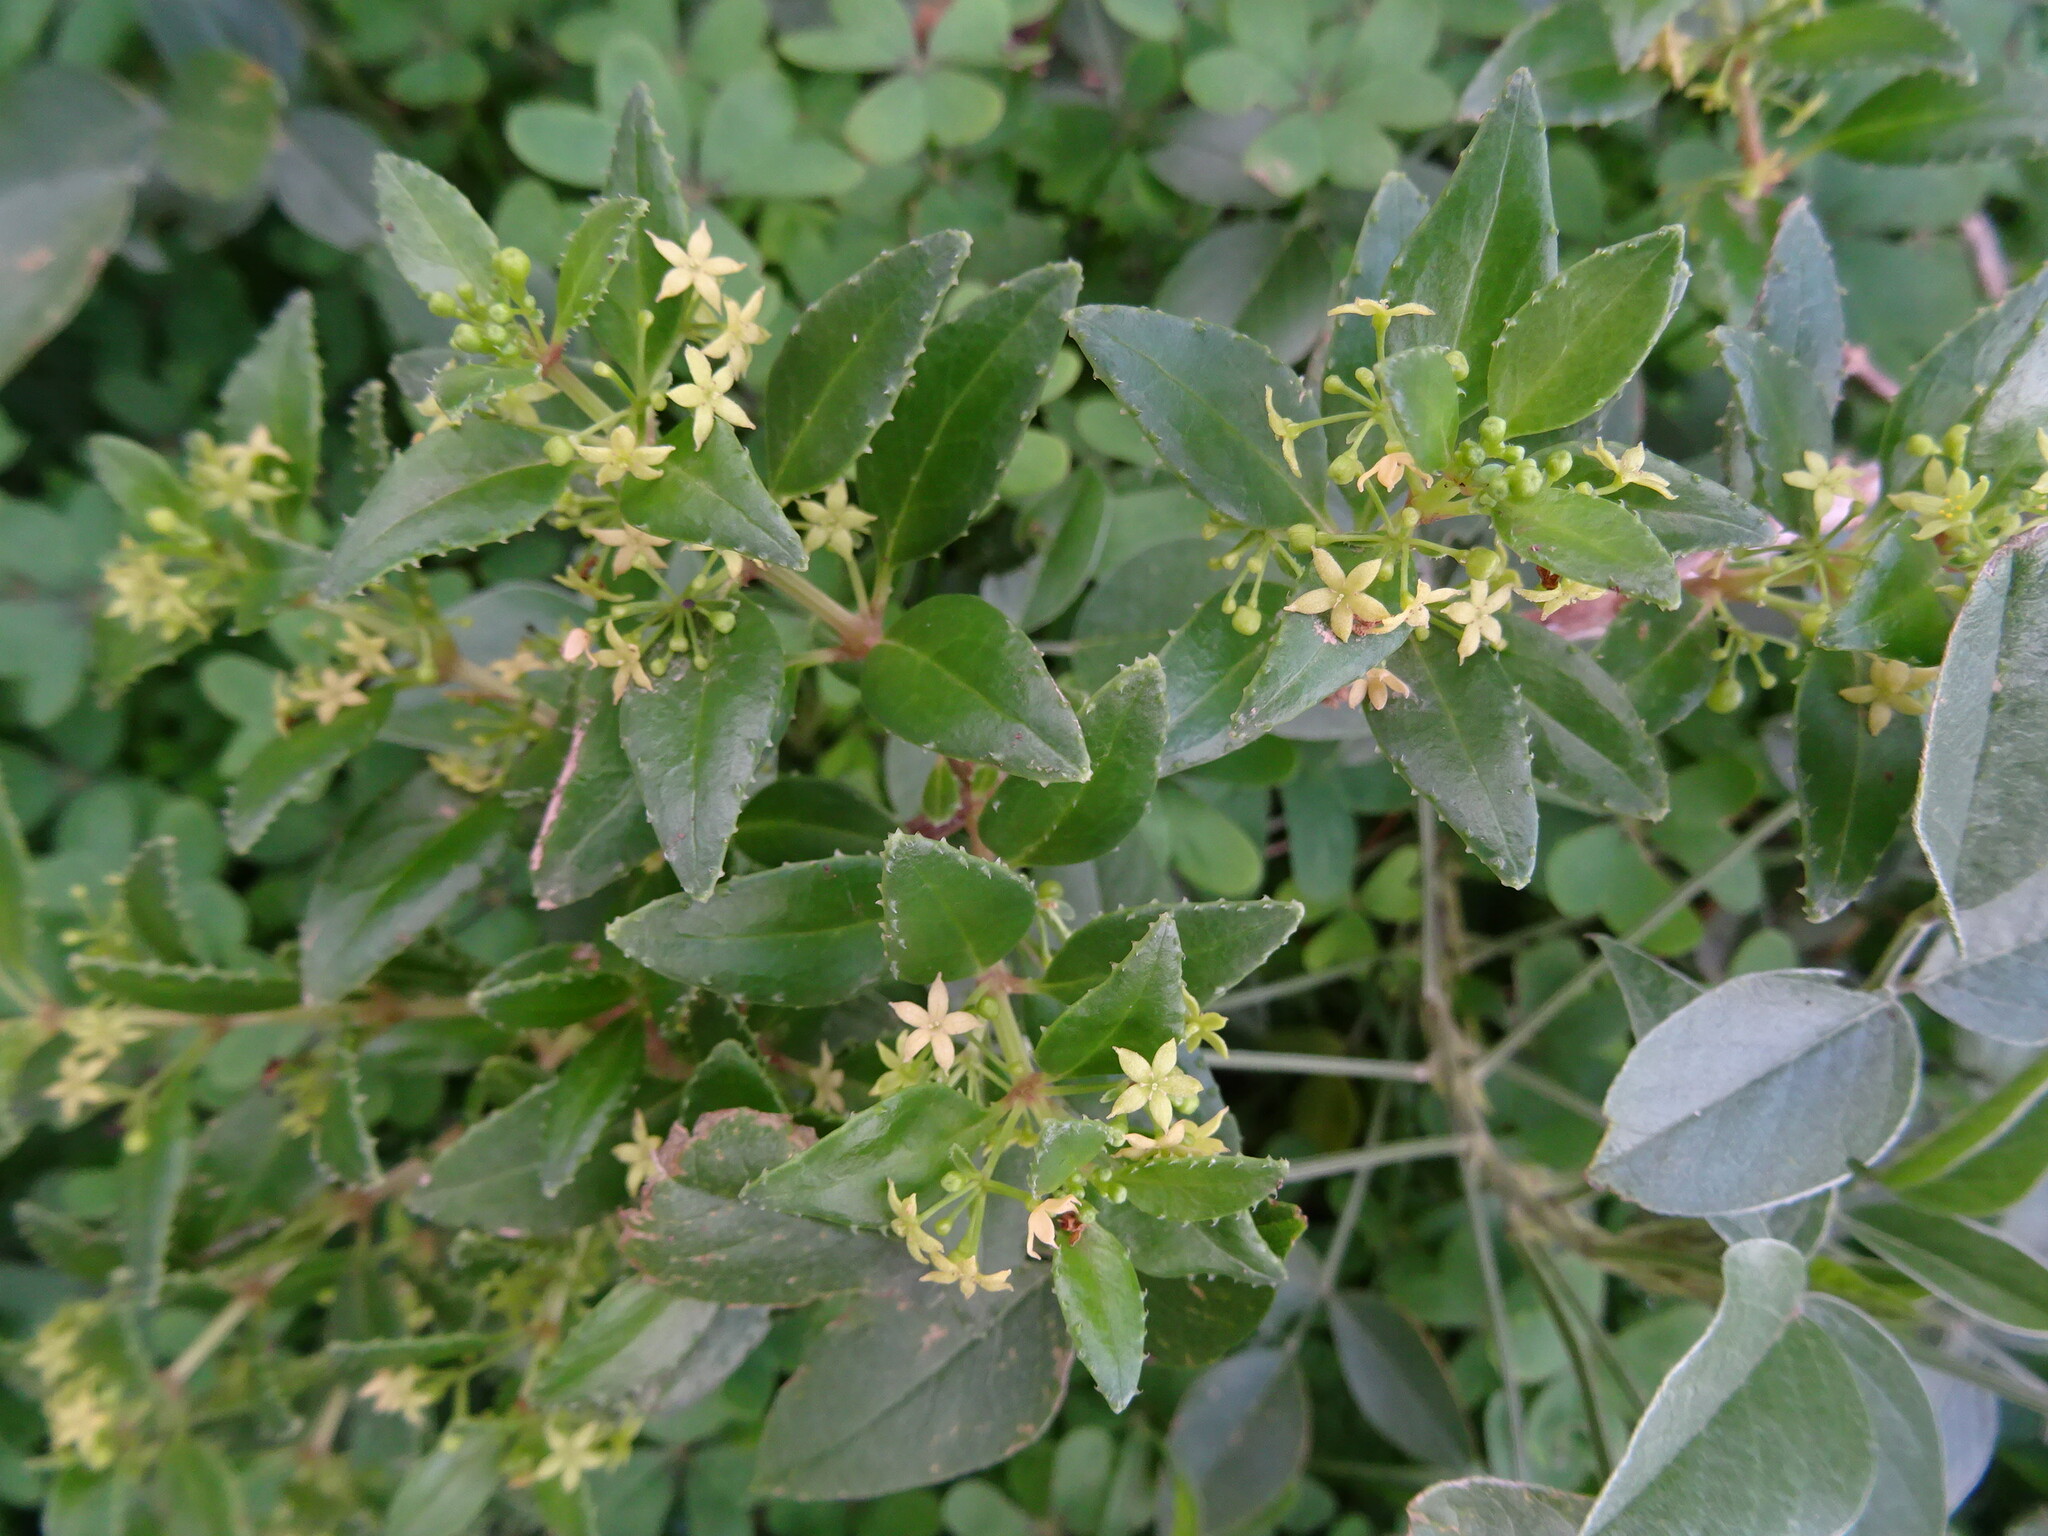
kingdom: Plantae
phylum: Tracheophyta
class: Magnoliopsida
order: Gentianales
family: Rubiaceae
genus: Rubia
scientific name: Rubia fruticosa
